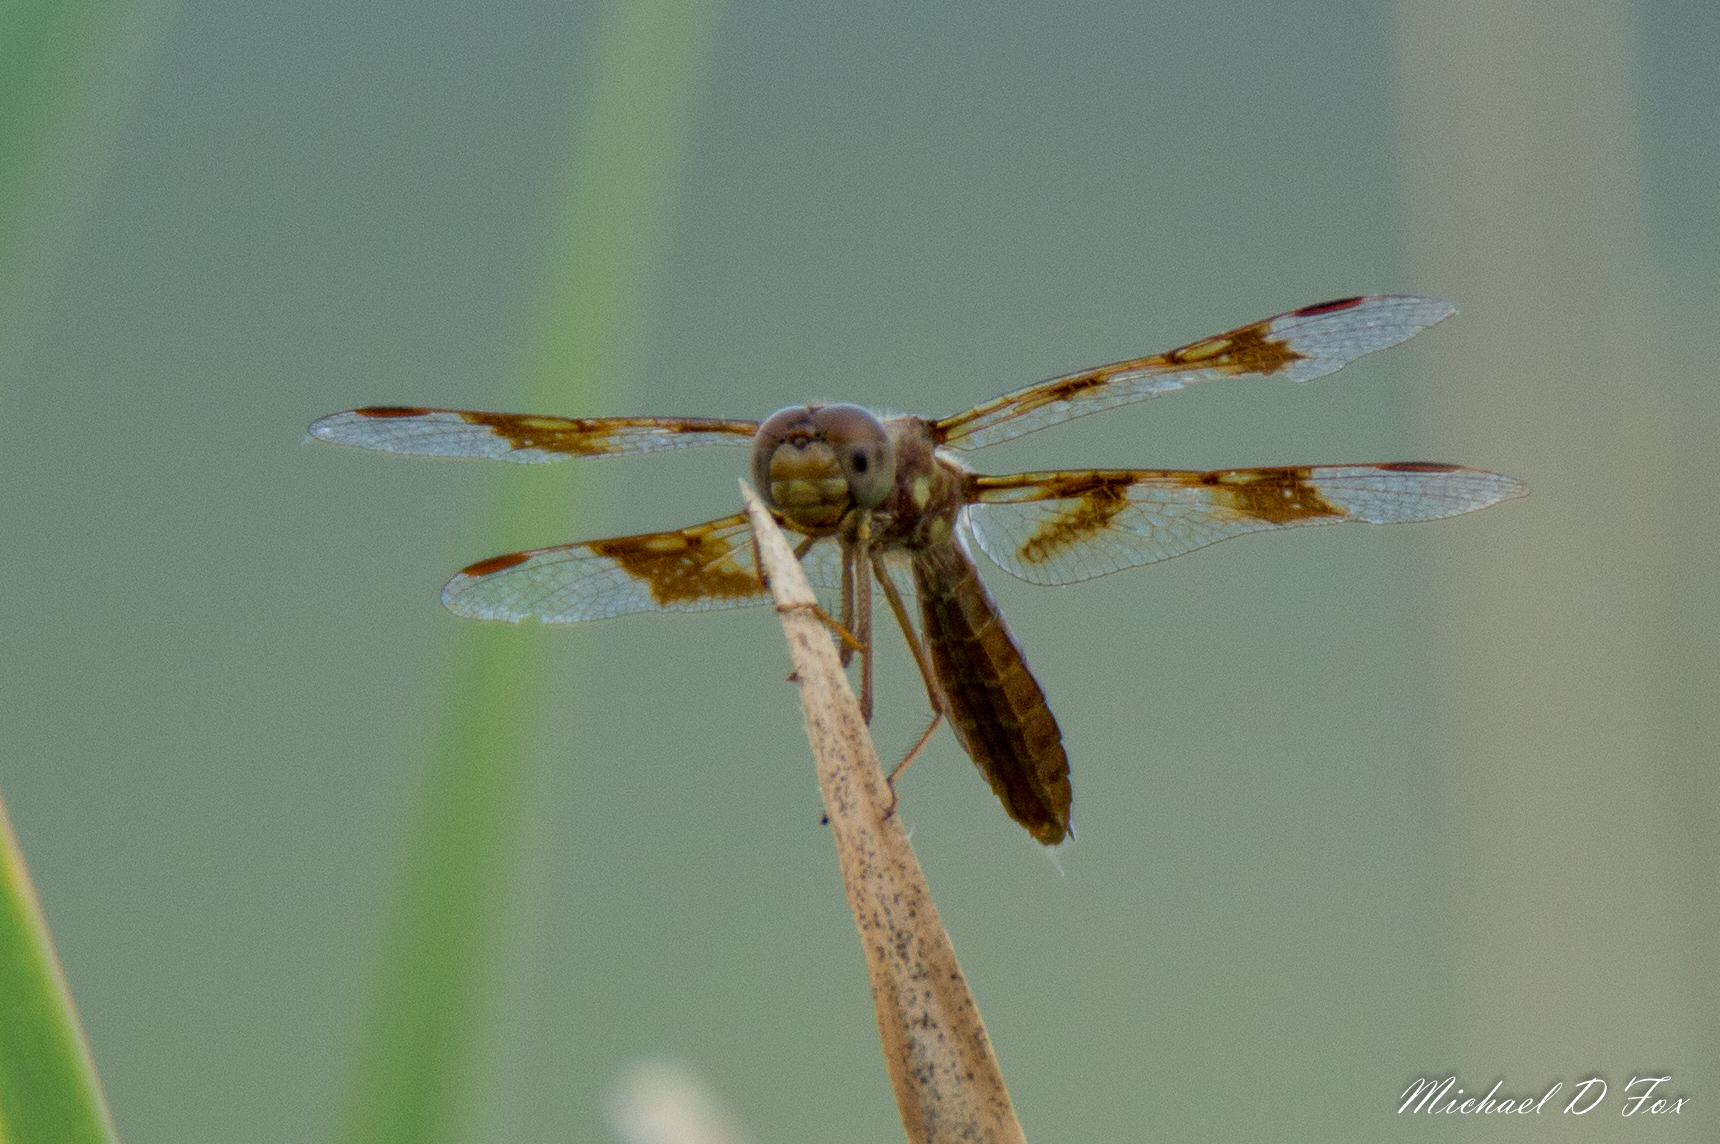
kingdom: Animalia
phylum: Arthropoda
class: Insecta
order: Odonata
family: Libellulidae
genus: Perithemis
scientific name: Perithemis tenera
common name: Eastern amberwing
